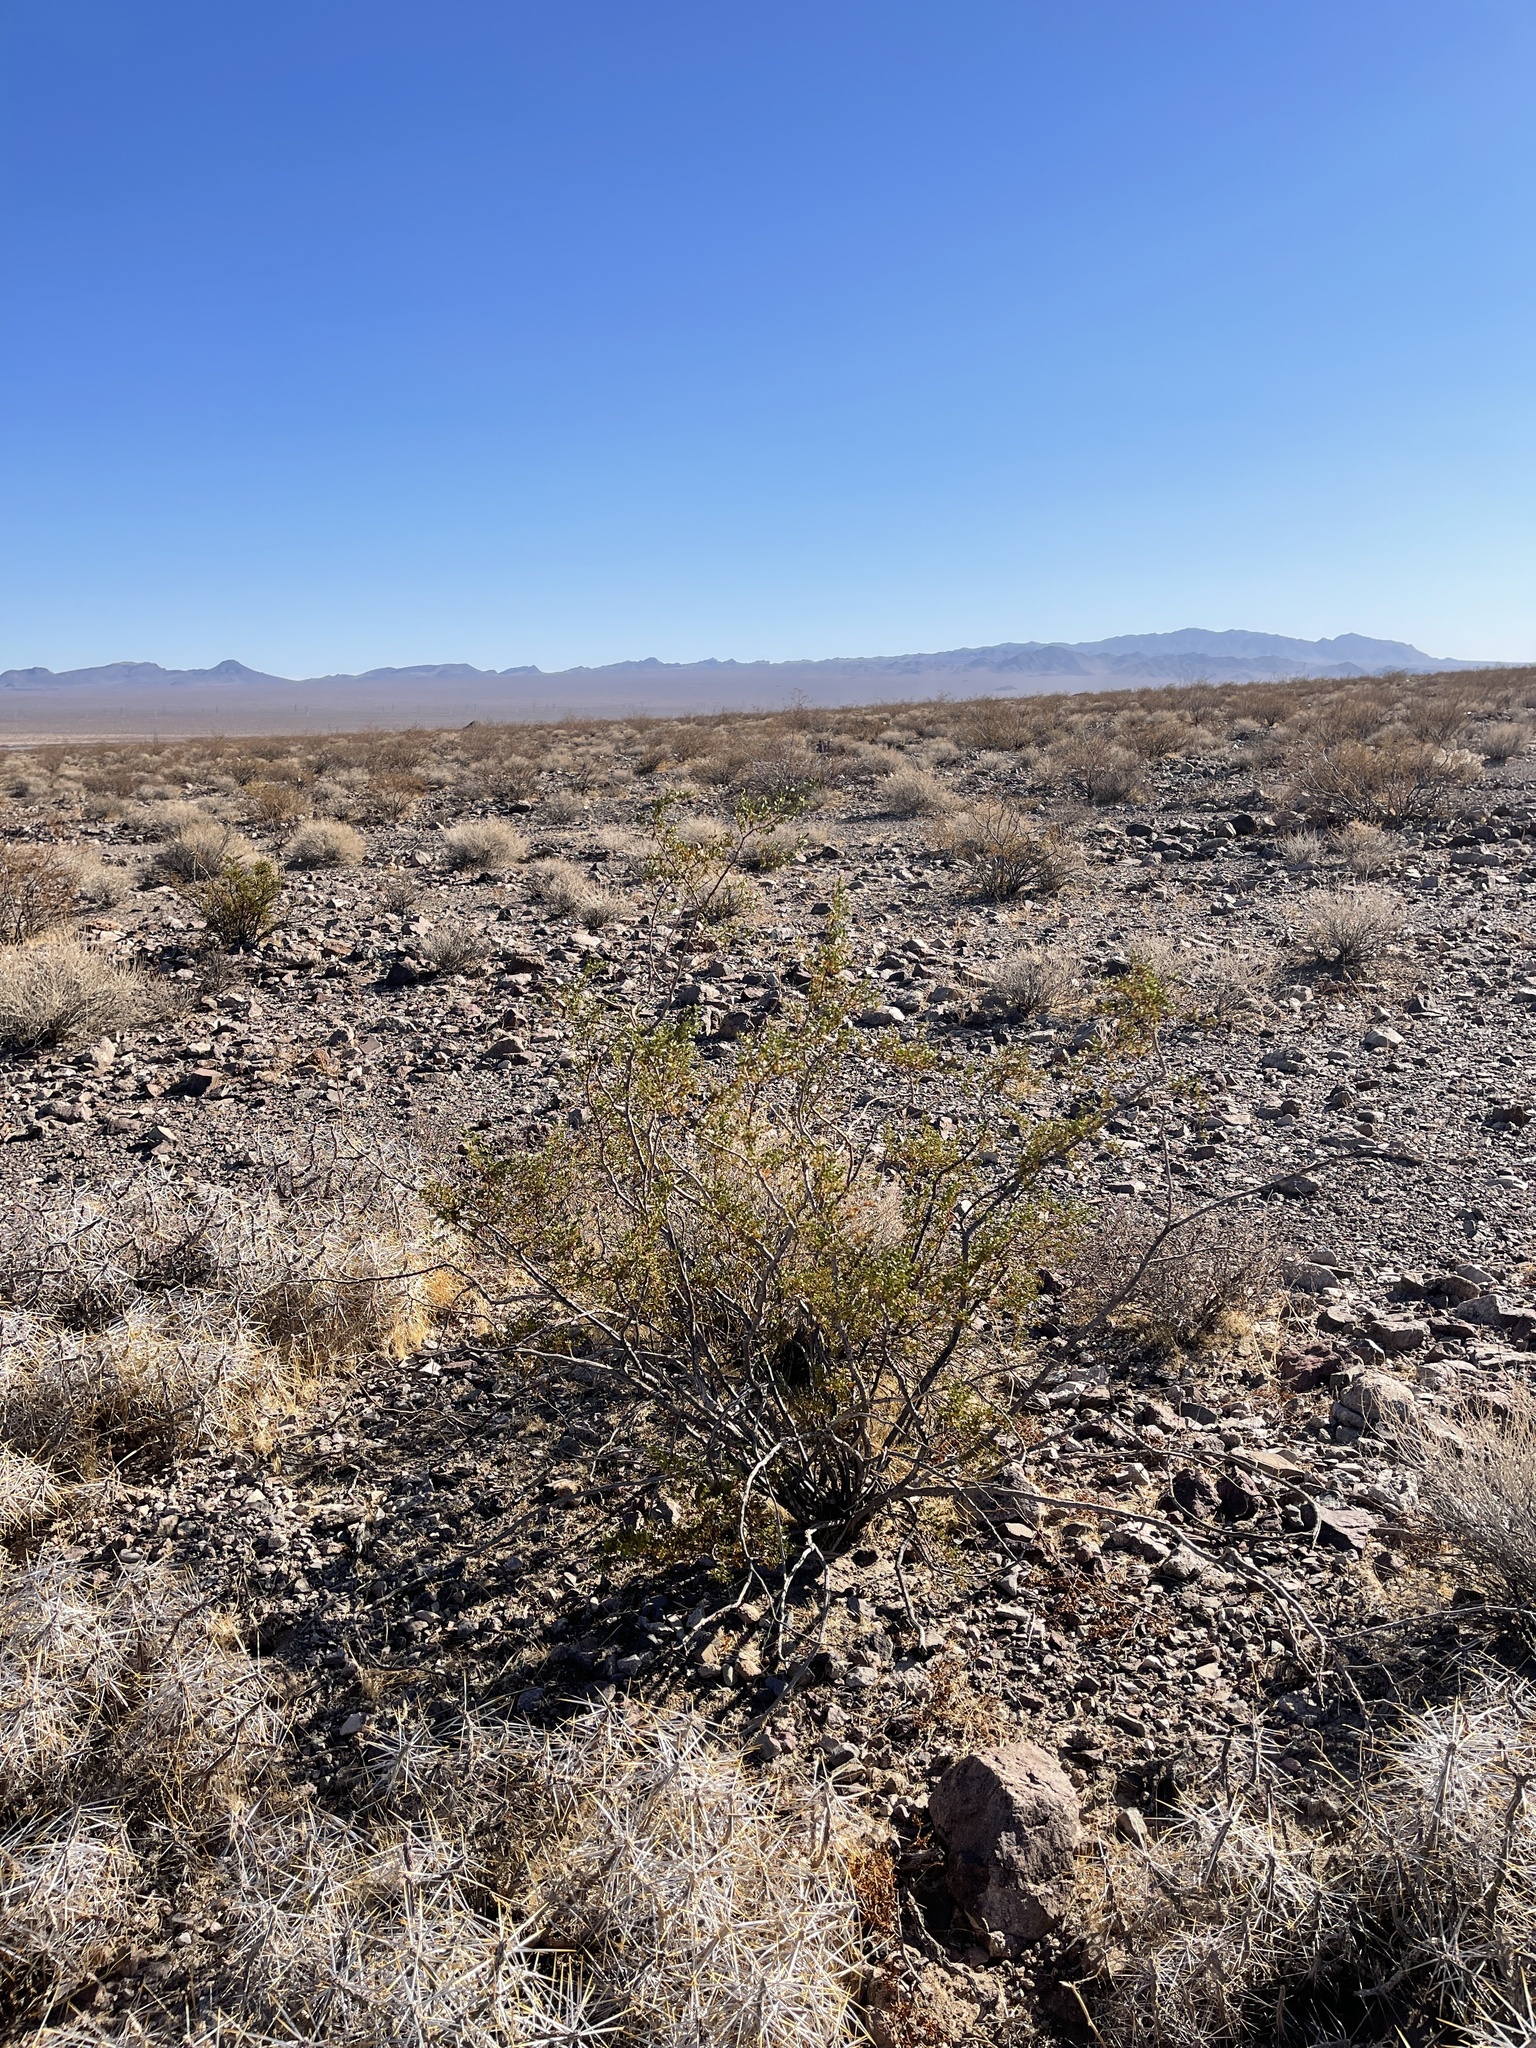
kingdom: Plantae
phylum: Tracheophyta
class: Magnoliopsida
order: Zygophyllales
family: Zygophyllaceae
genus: Larrea
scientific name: Larrea tridentata
